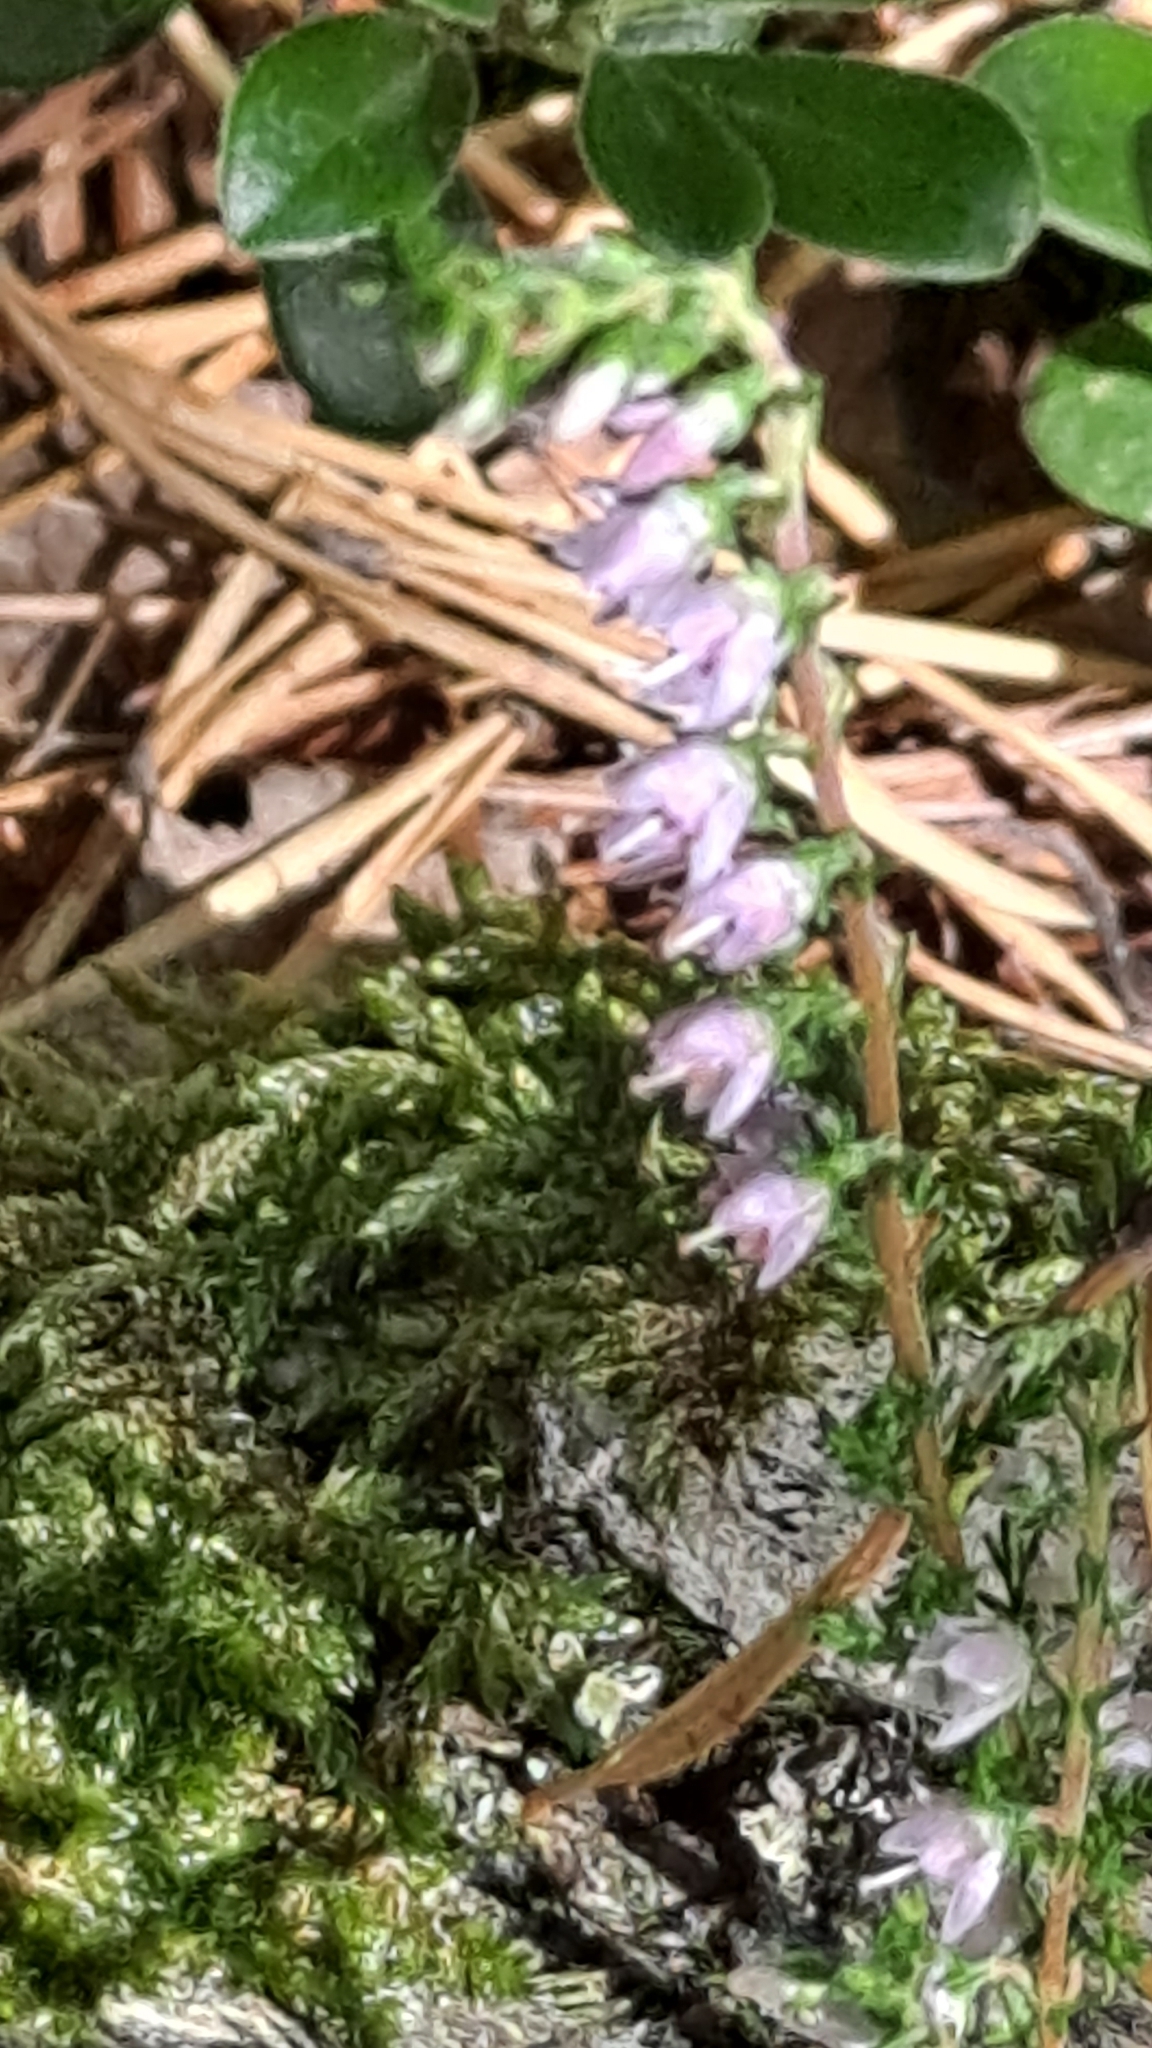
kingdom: Plantae
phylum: Tracheophyta
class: Magnoliopsida
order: Ericales
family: Ericaceae
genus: Calluna
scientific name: Calluna vulgaris
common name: Heather
